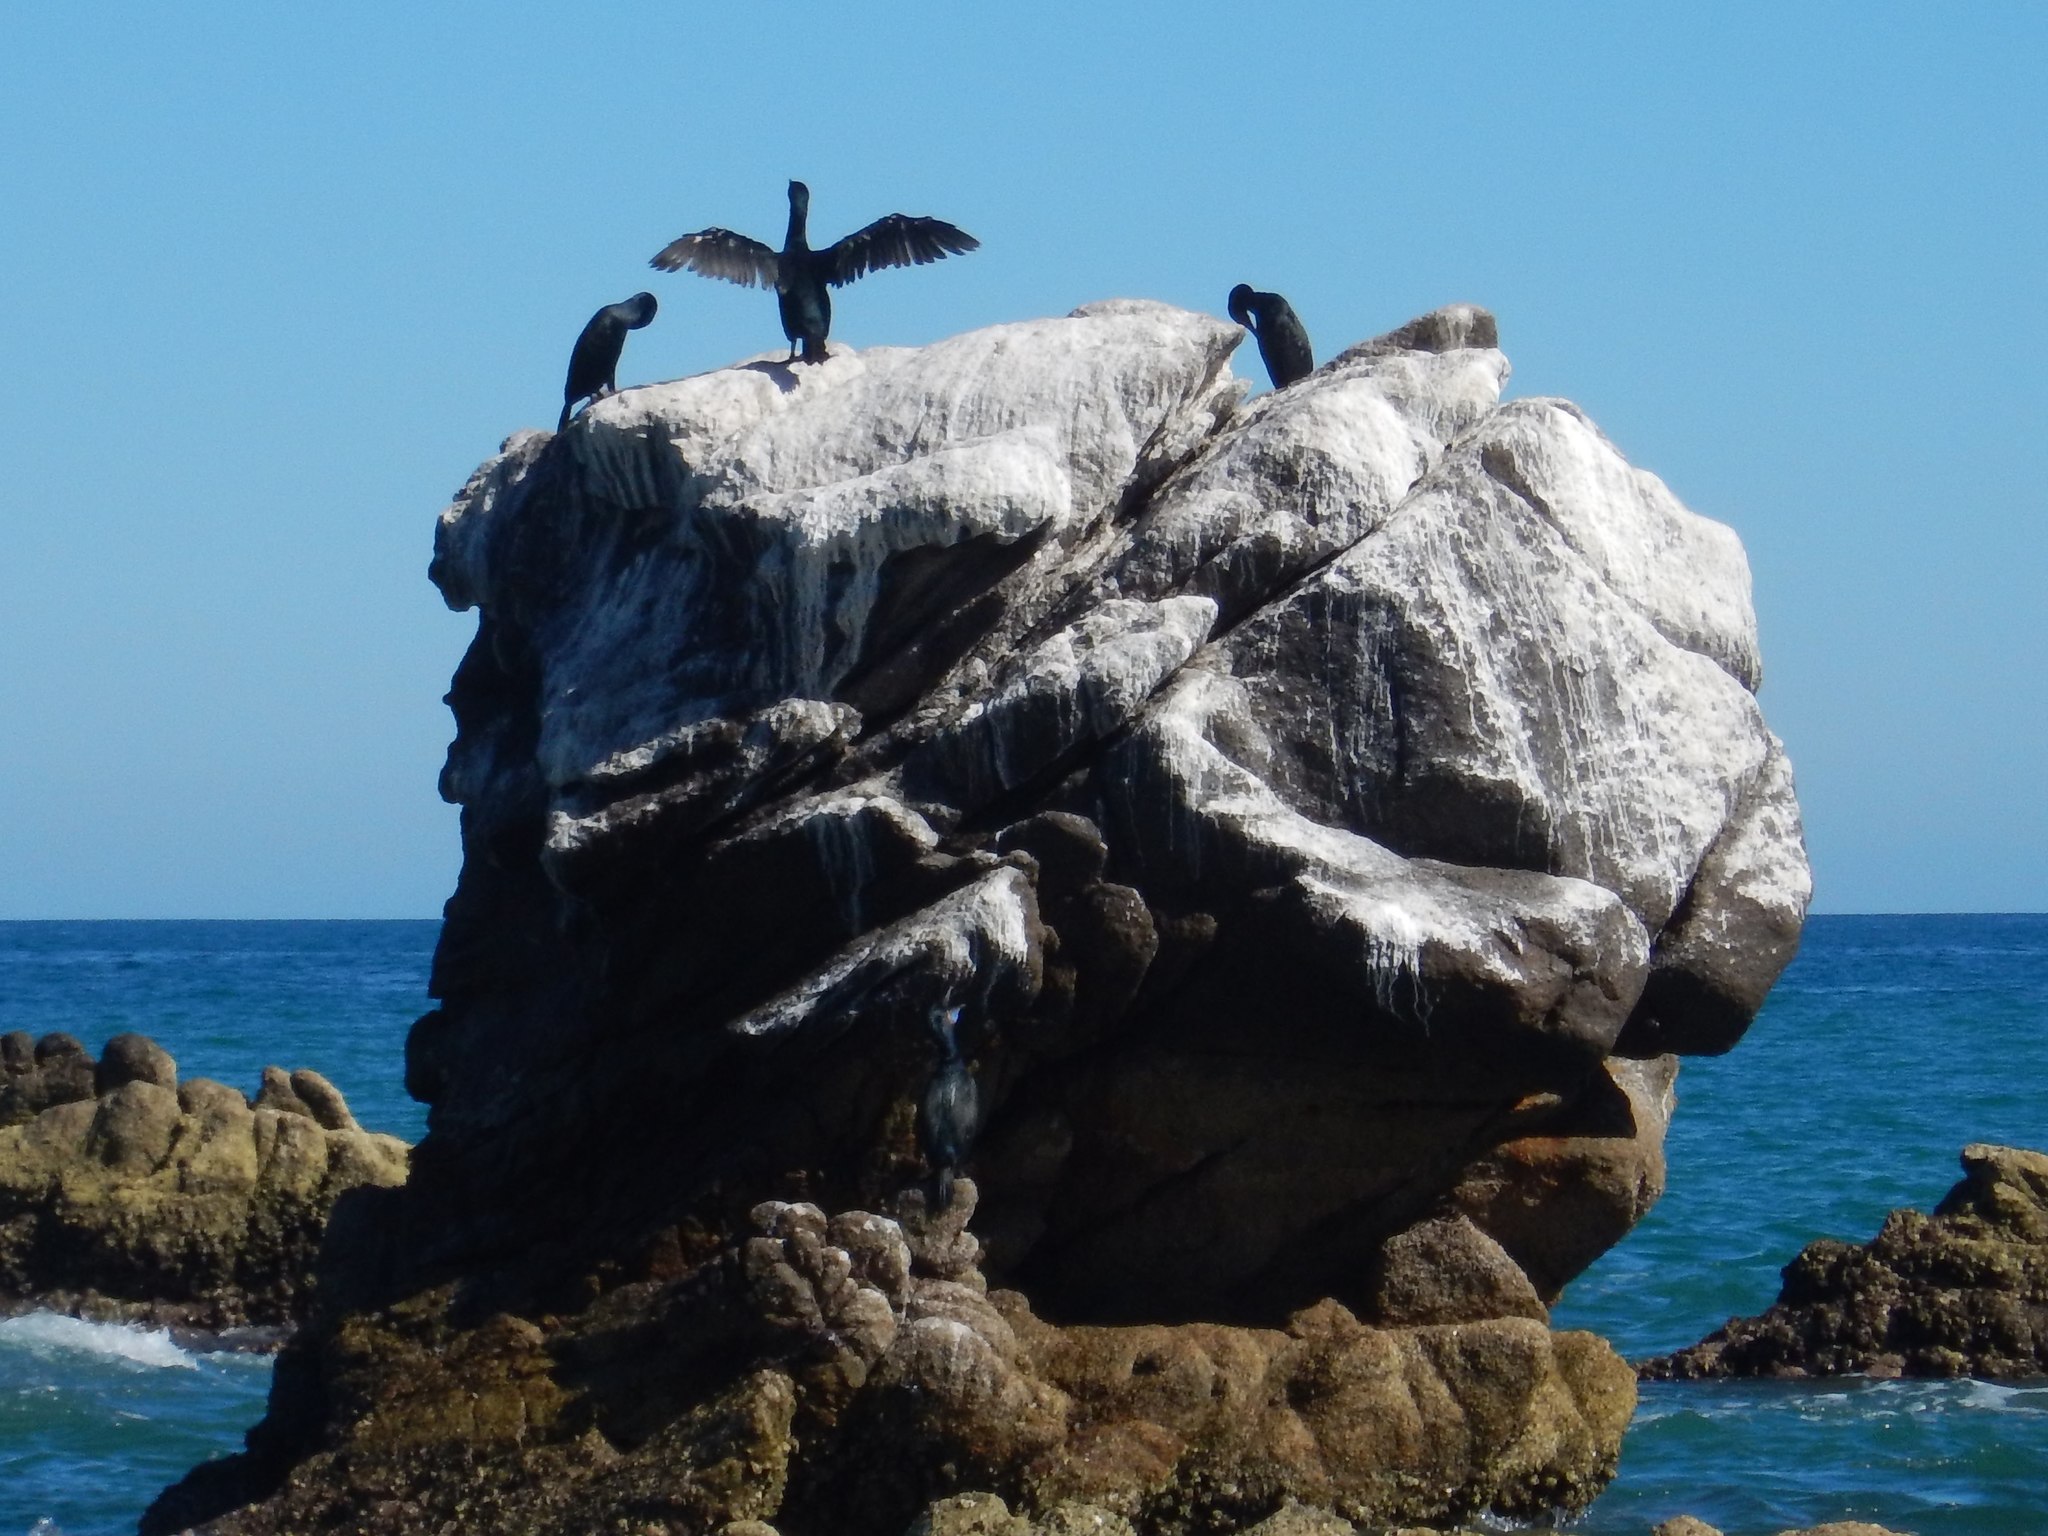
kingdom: Animalia
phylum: Chordata
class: Aves
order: Suliformes
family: Phalacrocoracidae
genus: Urile
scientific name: Urile penicillatus
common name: Brandt's cormorant
